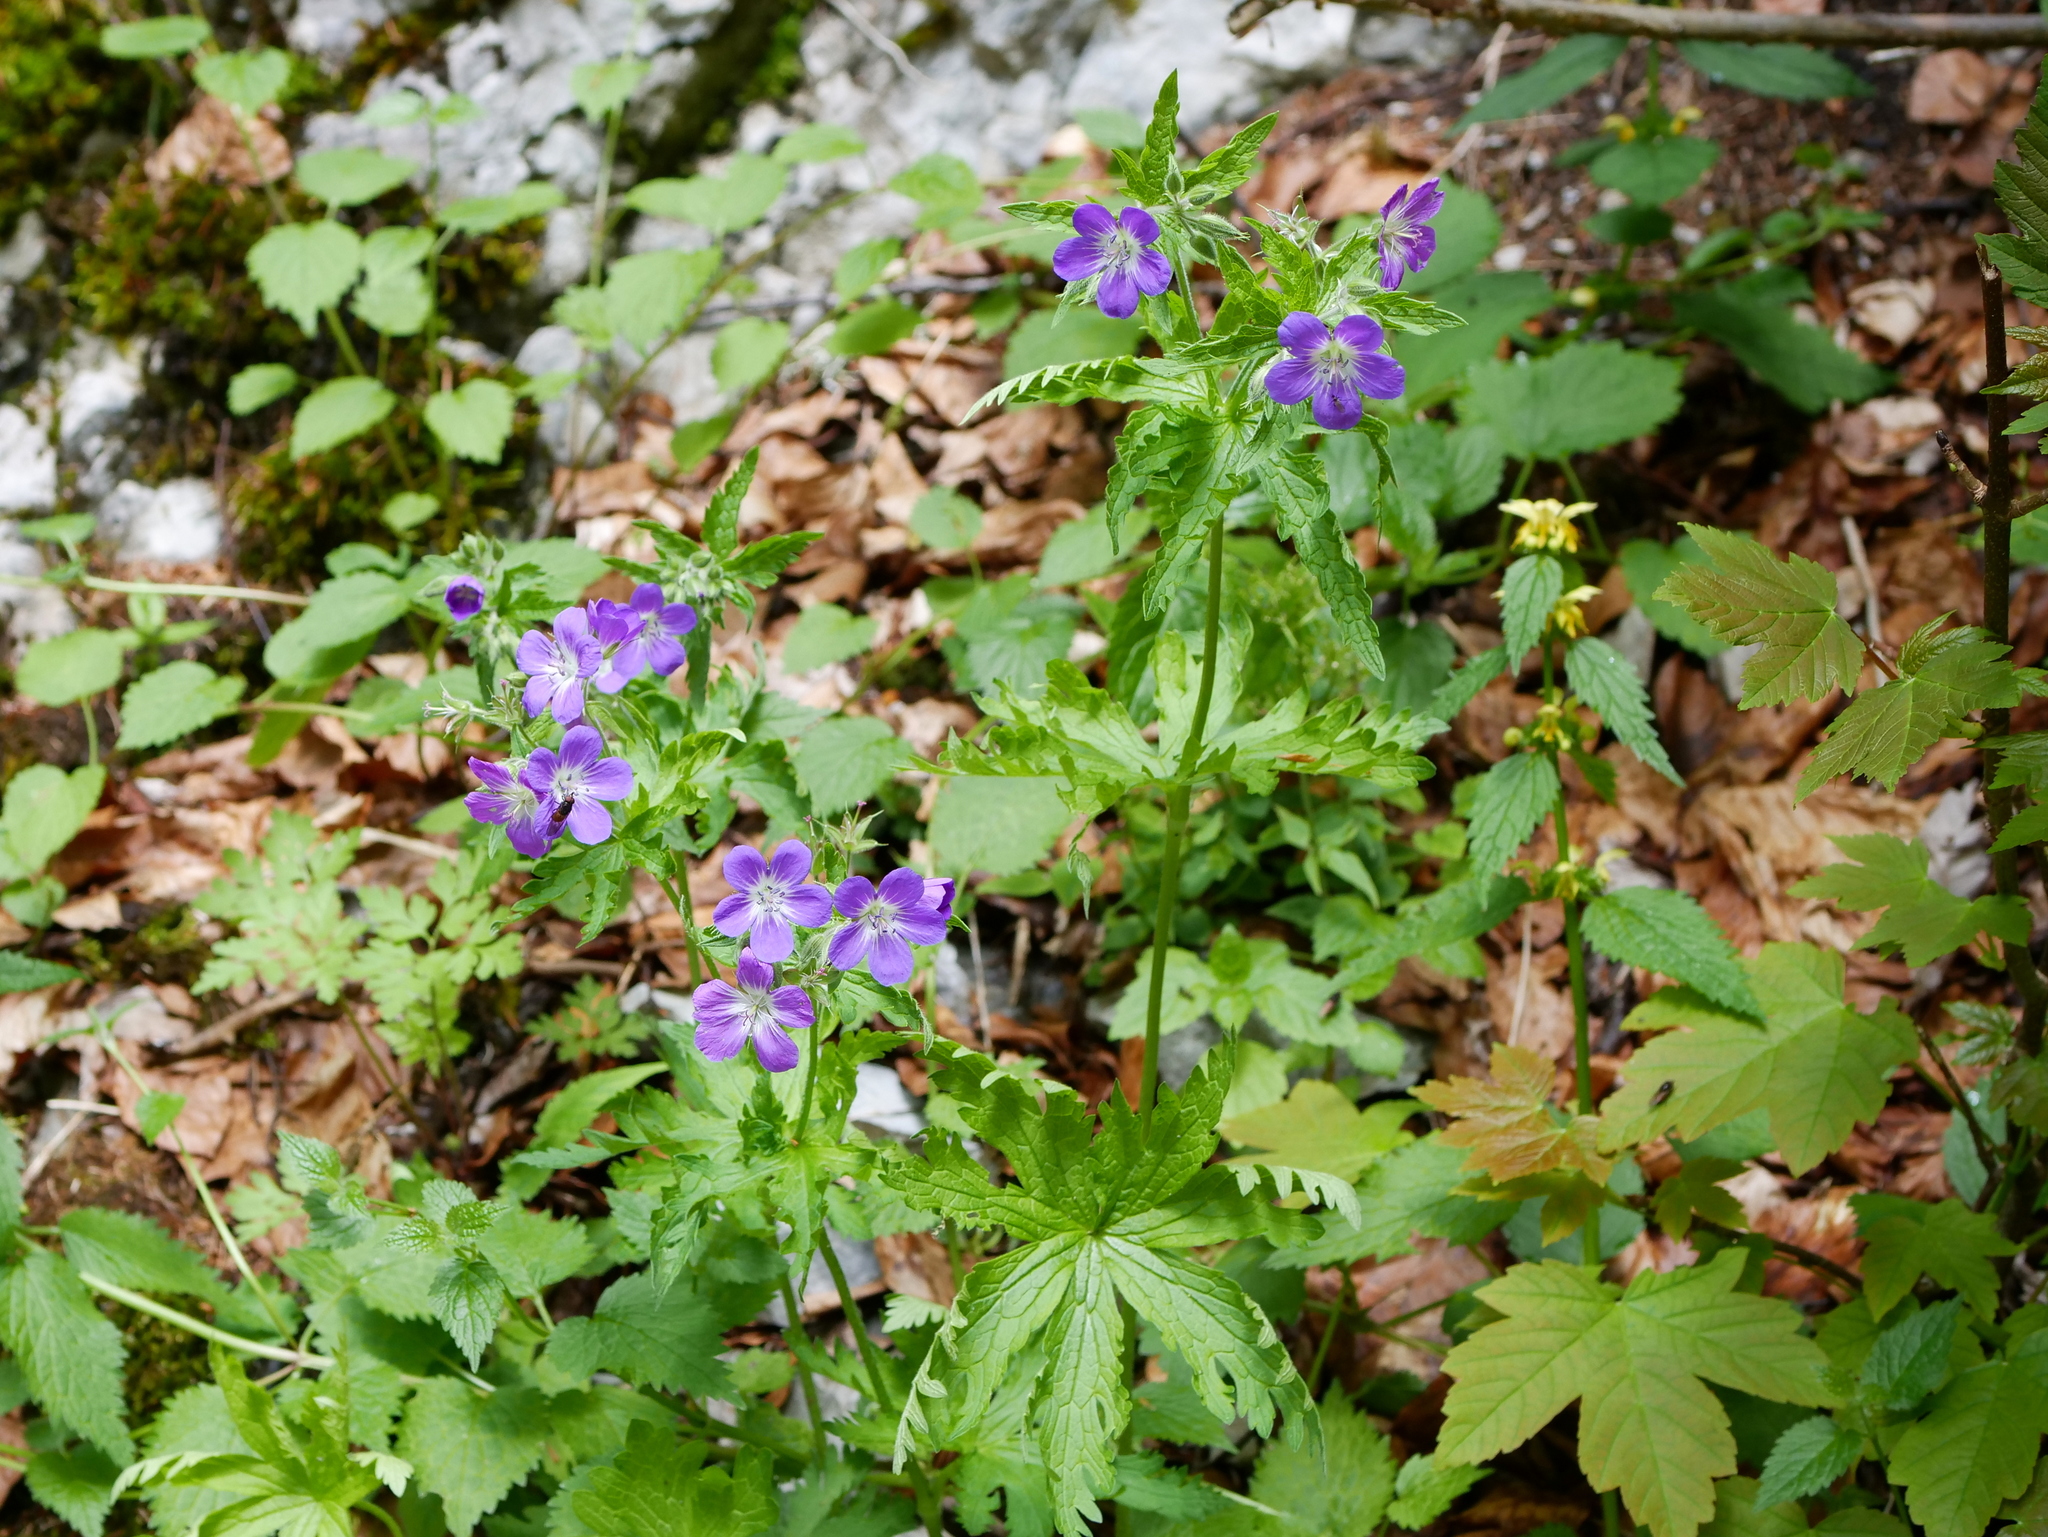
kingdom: Plantae
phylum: Tracheophyta
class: Magnoliopsida
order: Geraniales
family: Geraniaceae
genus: Geranium
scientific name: Geranium sylvaticum
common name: Wood crane's-bill
